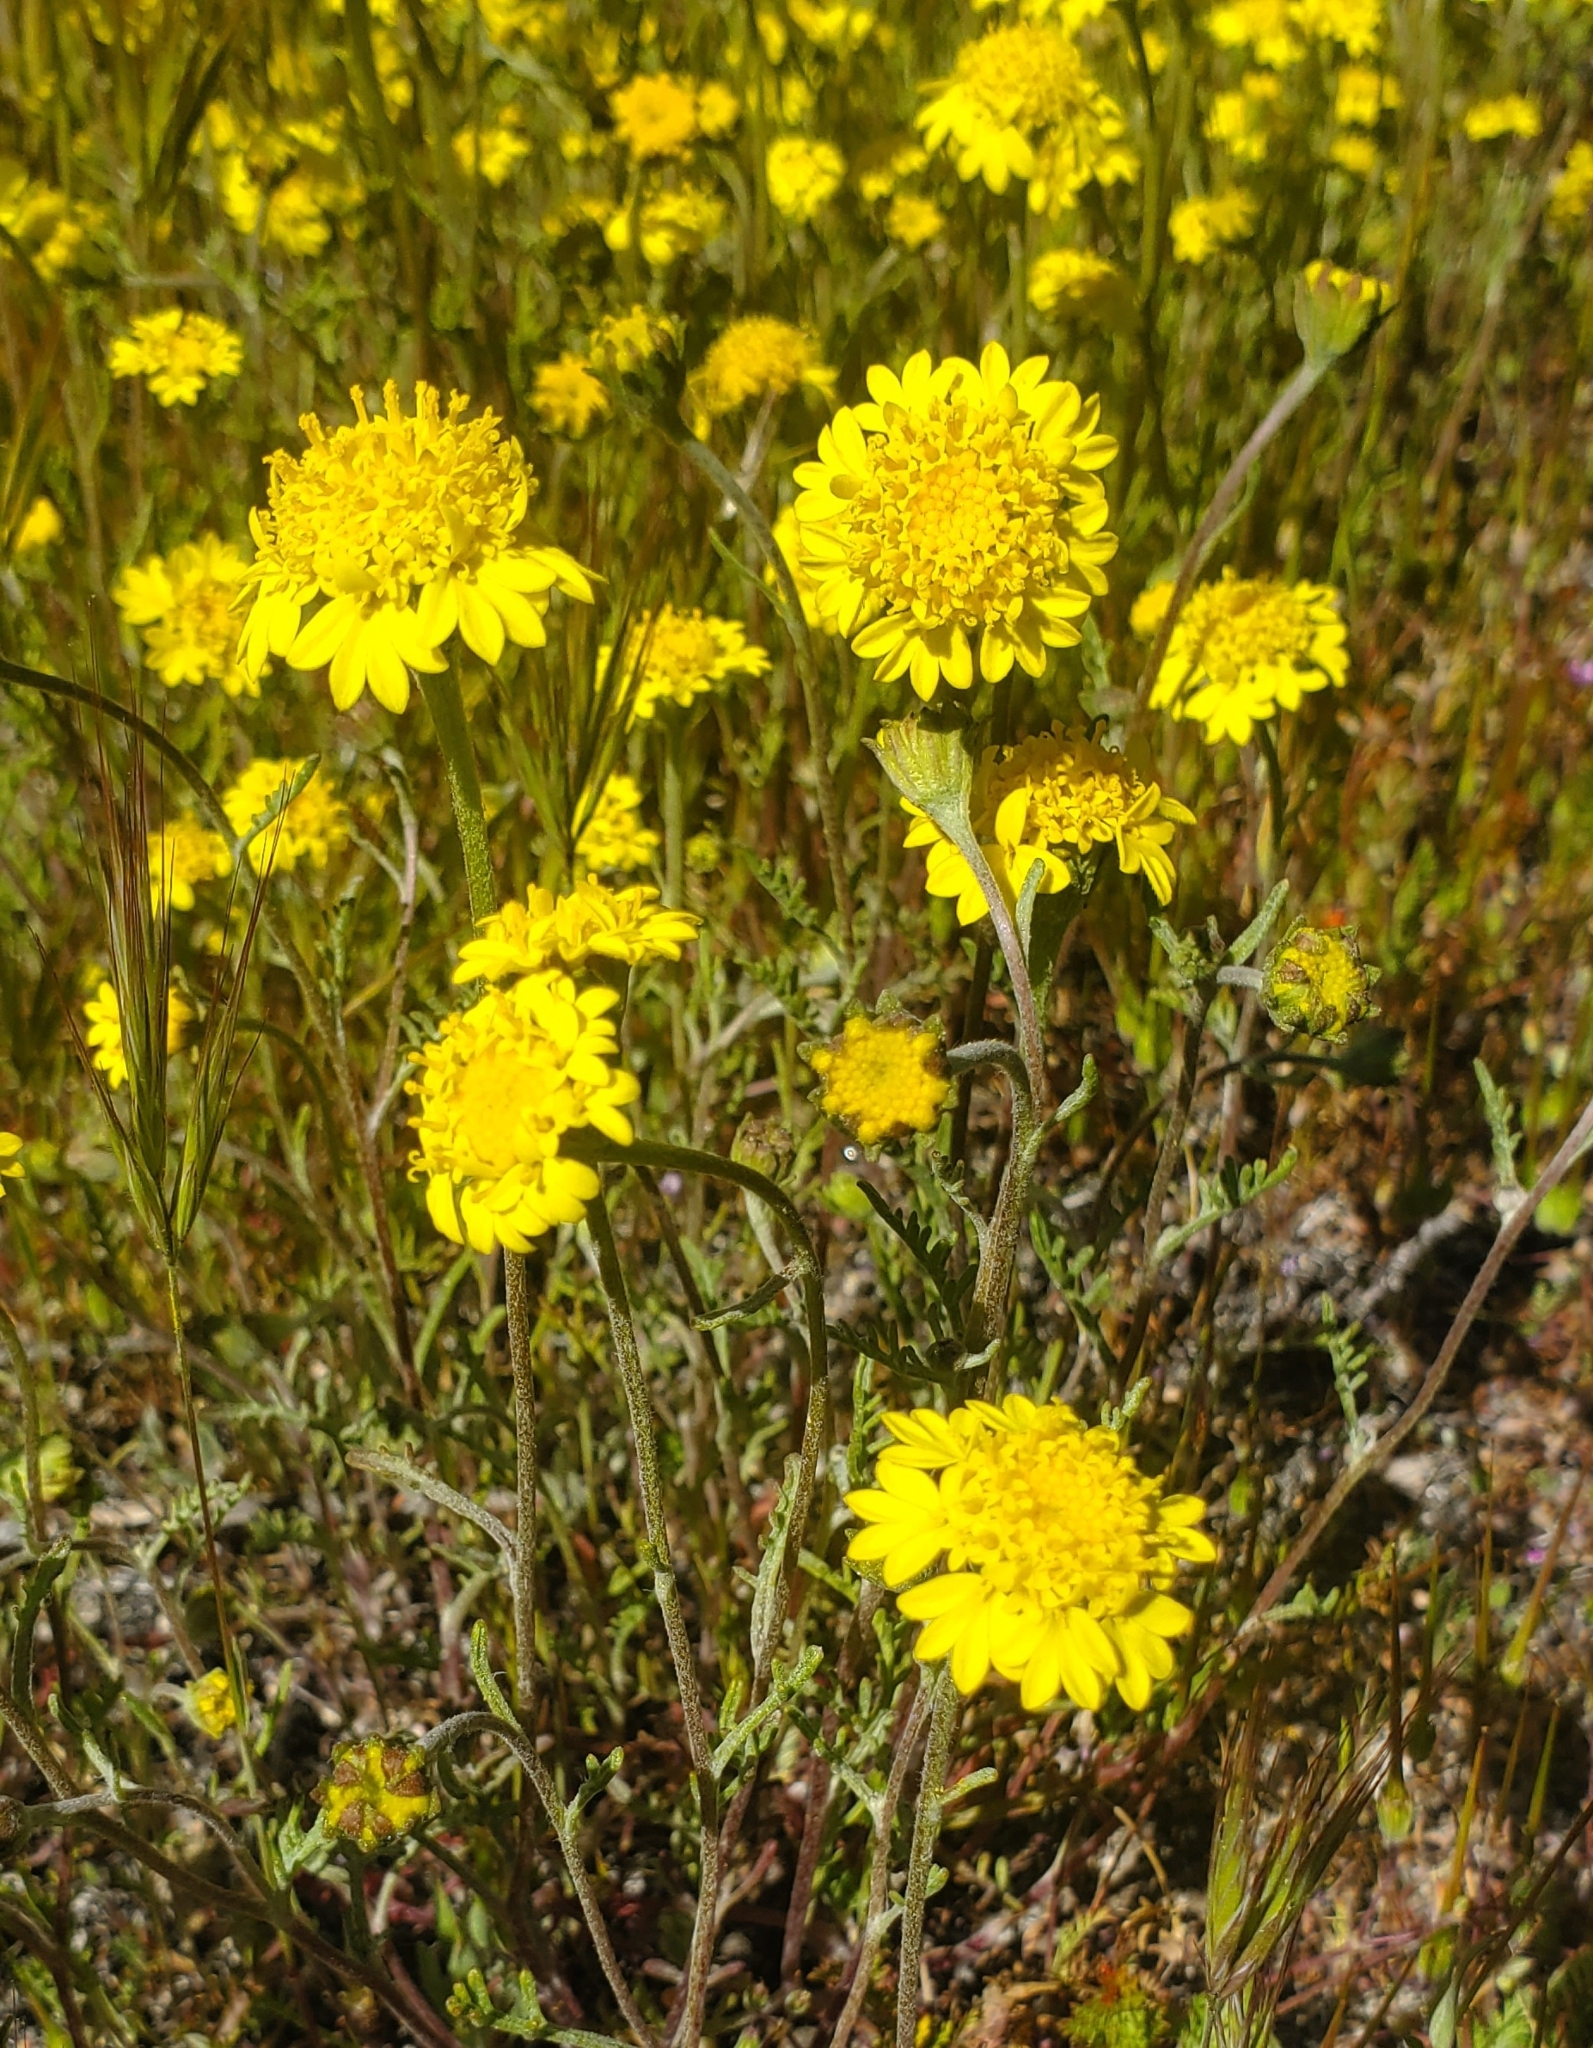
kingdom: Plantae
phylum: Tracheophyta
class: Magnoliopsida
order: Asterales
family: Asteraceae
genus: Chaenactis
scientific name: Chaenactis glabriuscula
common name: Yellow pincushion
